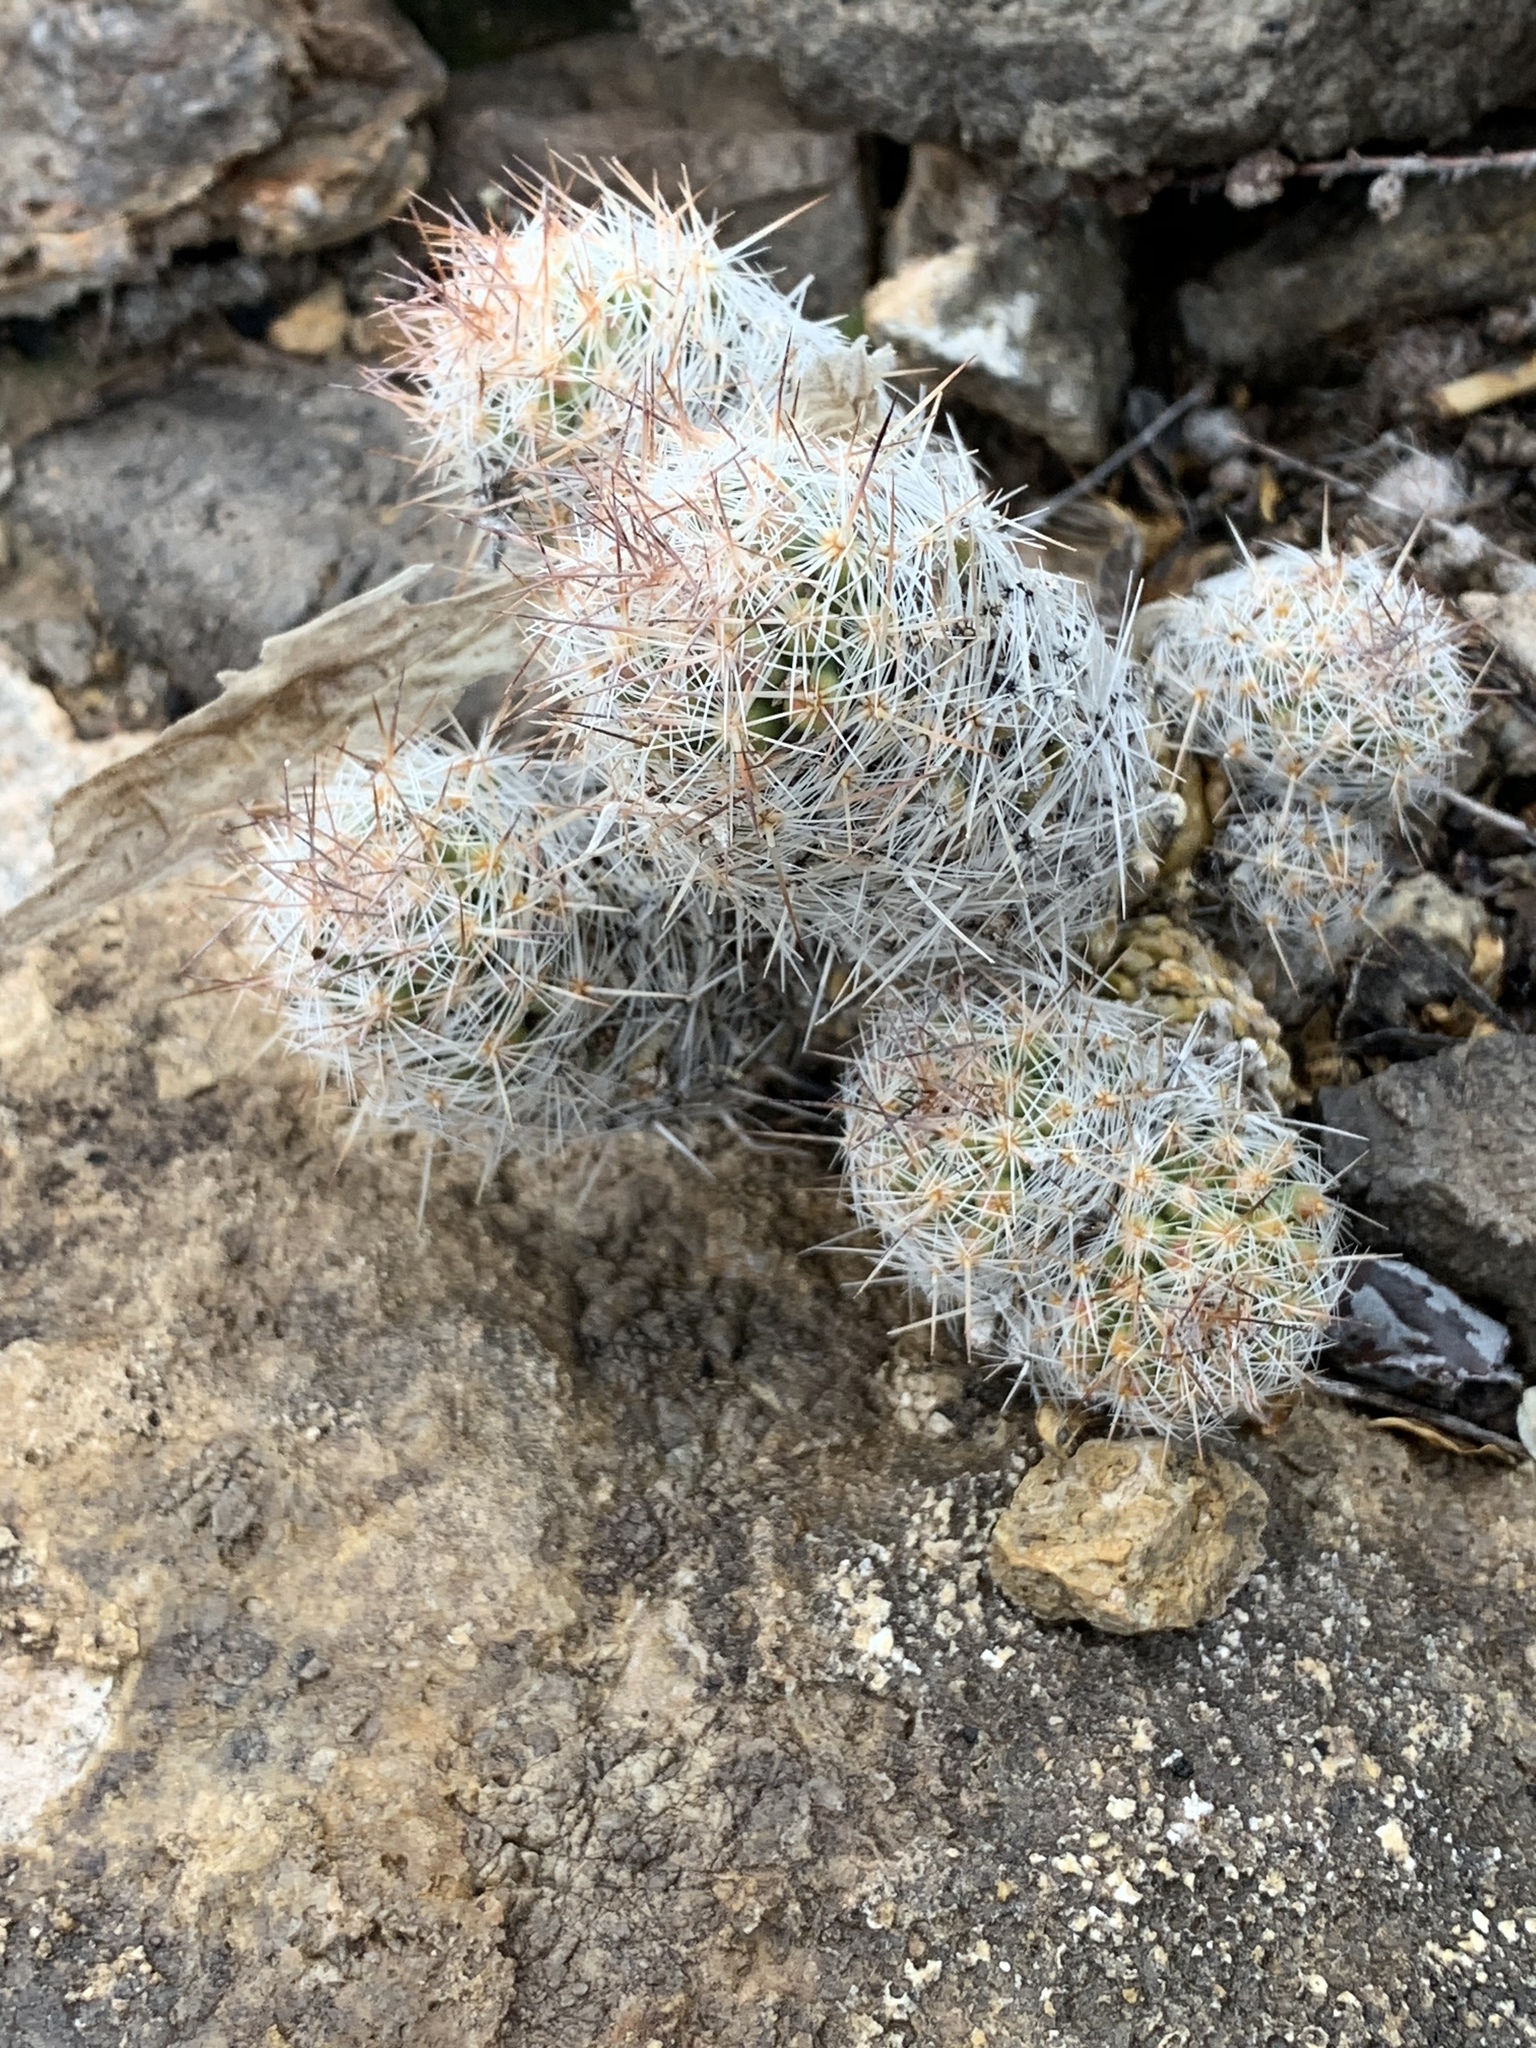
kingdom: Plantae
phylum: Tracheophyta
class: Magnoliopsida
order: Caryophyllales
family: Cactaceae
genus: Pelecyphora
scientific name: Pelecyphora tuberculosa
